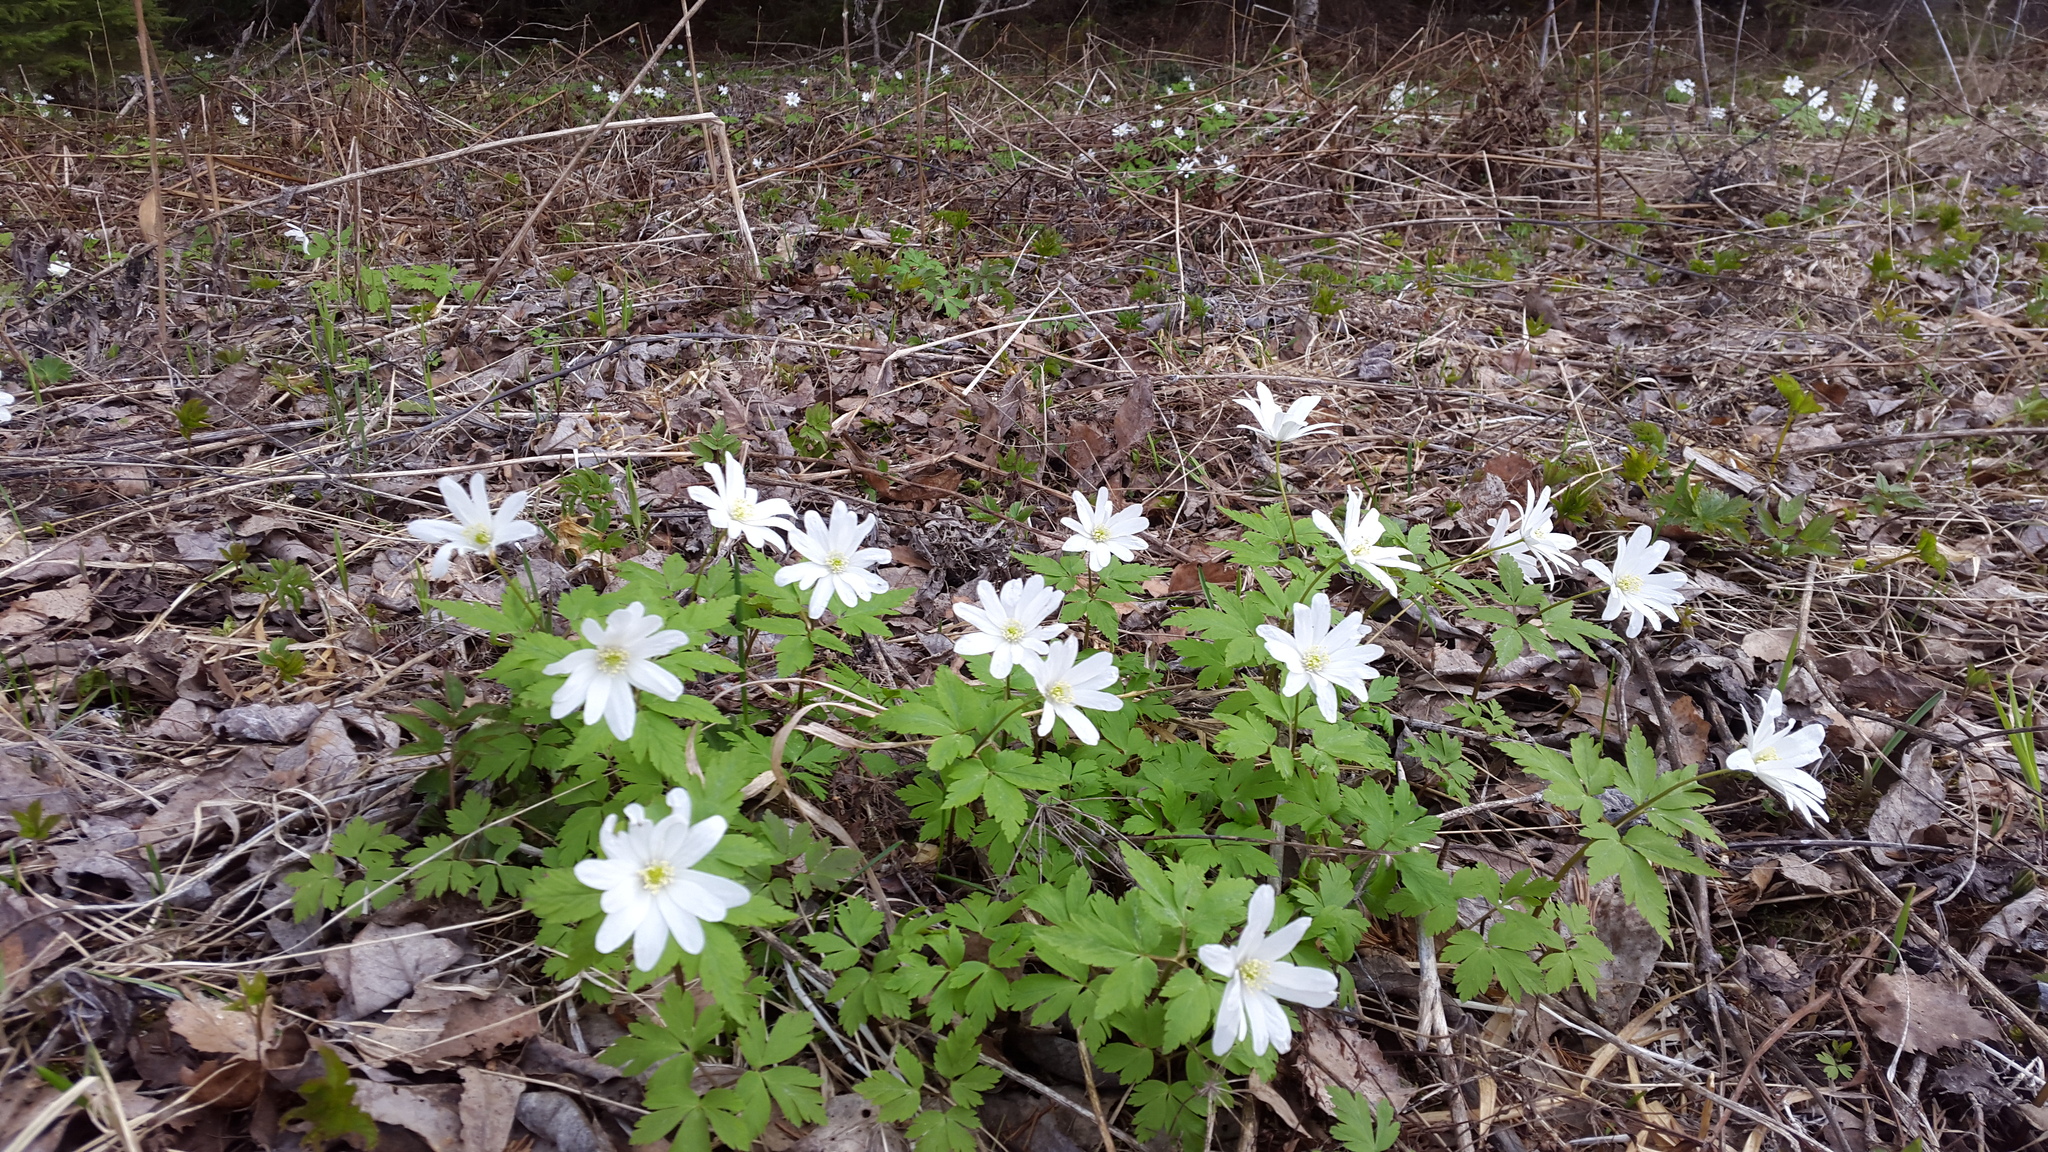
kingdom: Plantae
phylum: Tracheophyta
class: Magnoliopsida
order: Ranunculales
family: Ranunculaceae
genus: Anemone
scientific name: Anemone altaica
